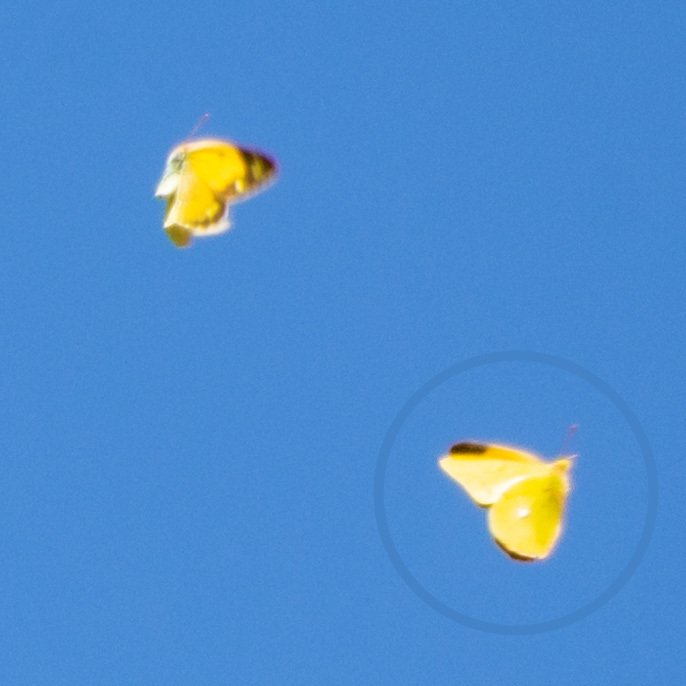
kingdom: Animalia
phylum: Arthropoda
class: Insecta
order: Lepidoptera
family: Pieridae
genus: Colias
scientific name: Colias croceus
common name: Clouded yellow
